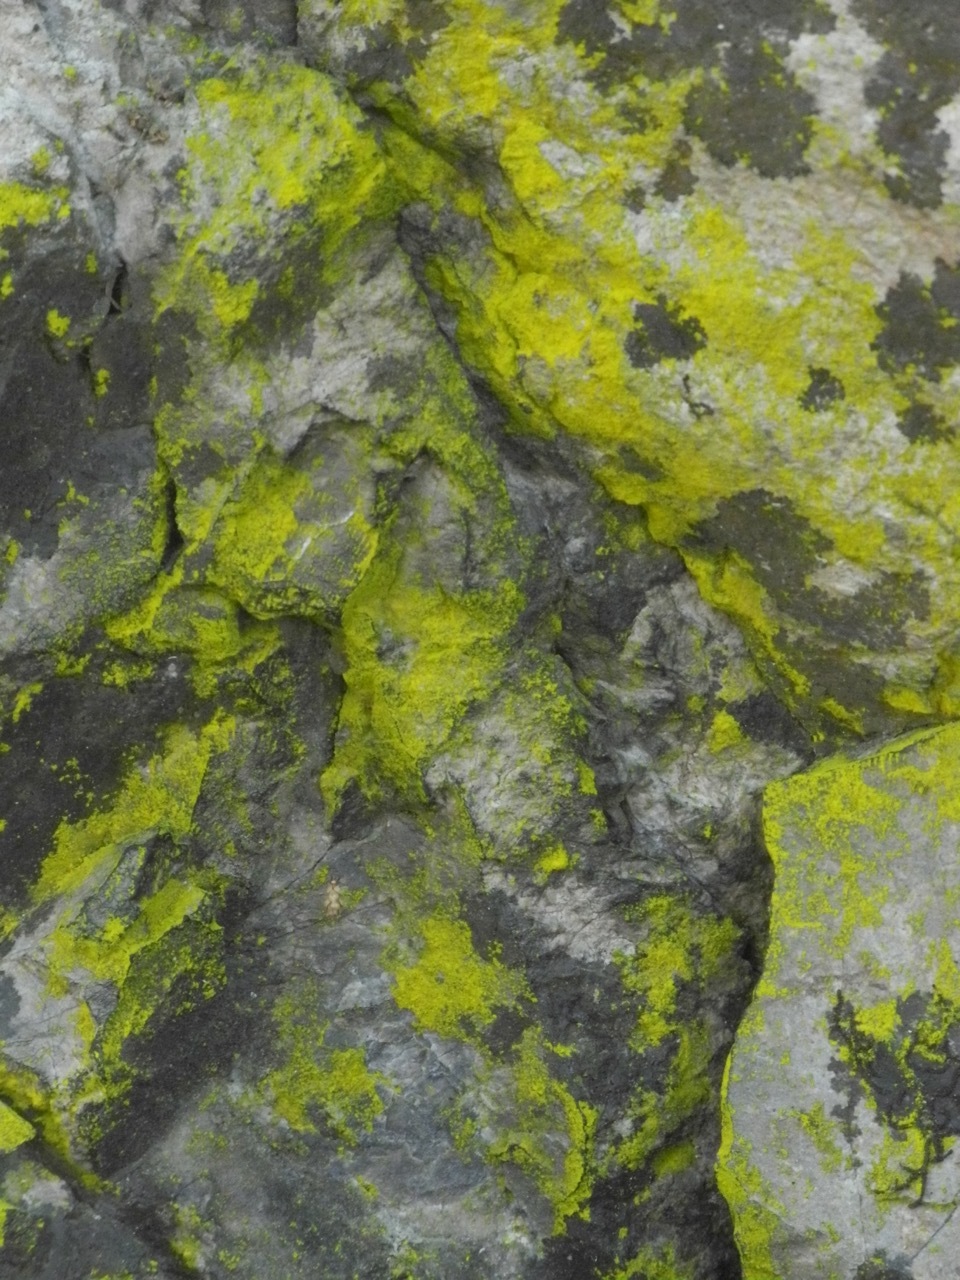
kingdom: Fungi
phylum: Ascomycota
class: Arthoniomycetes
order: Arthoniales
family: Chrysotrichaceae
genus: Chrysothrix
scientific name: Chrysothrix candelaris
